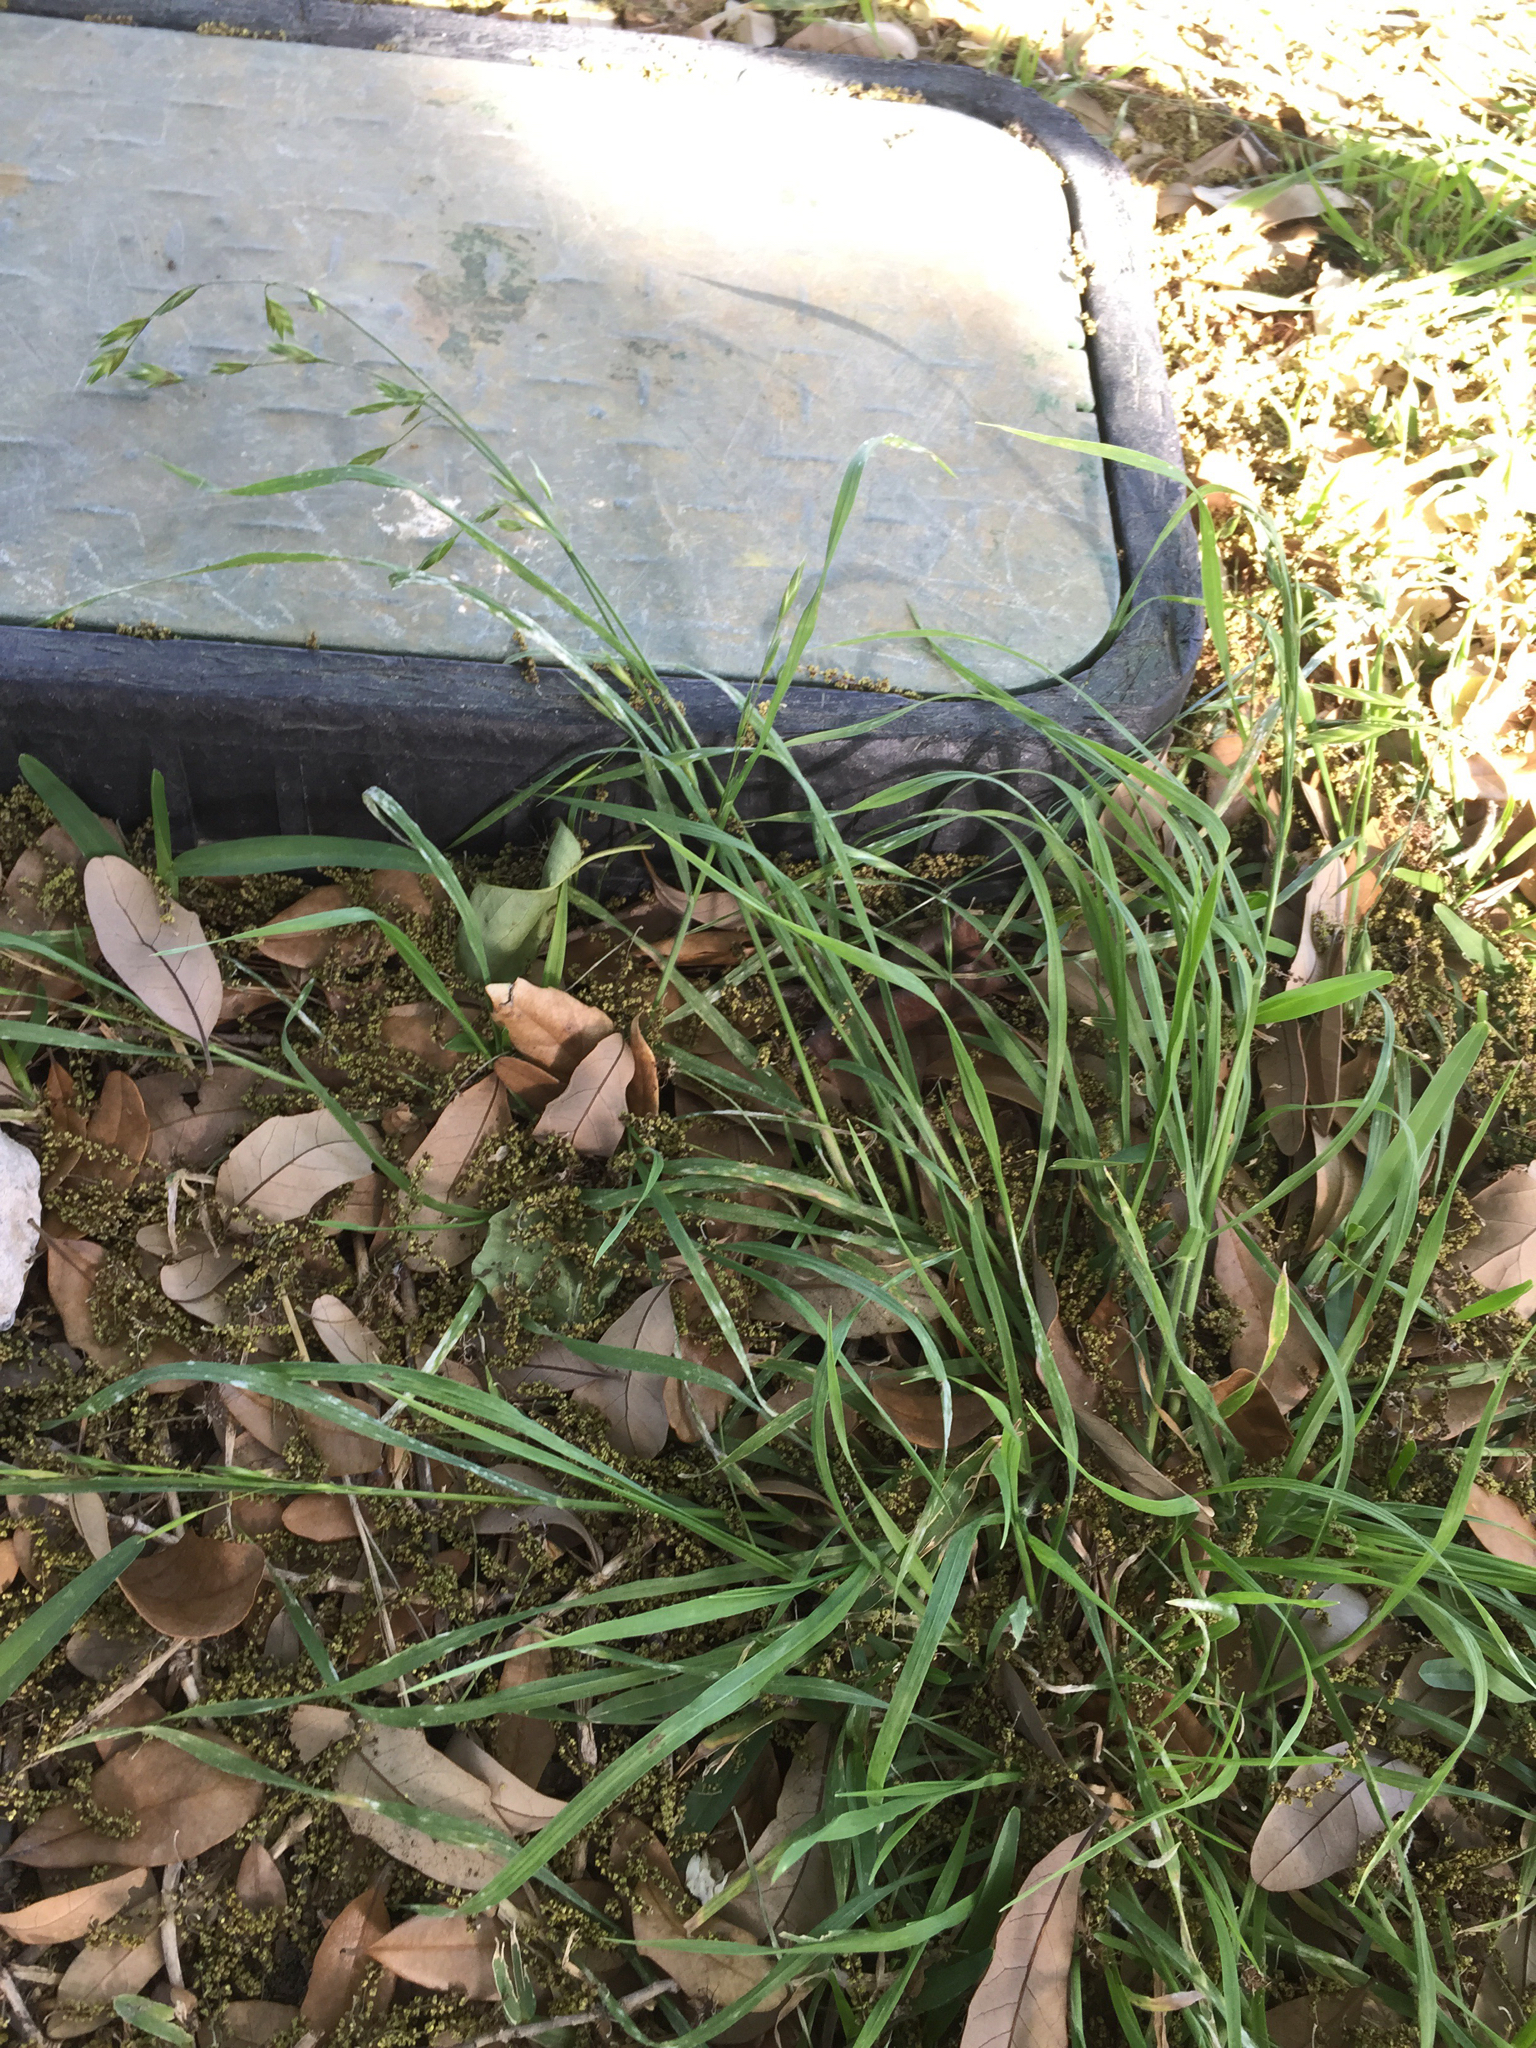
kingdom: Plantae
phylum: Tracheophyta
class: Liliopsida
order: Poales
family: Poaceae
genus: Bromus
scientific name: Bromus catharticus
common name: Rescuegrass
